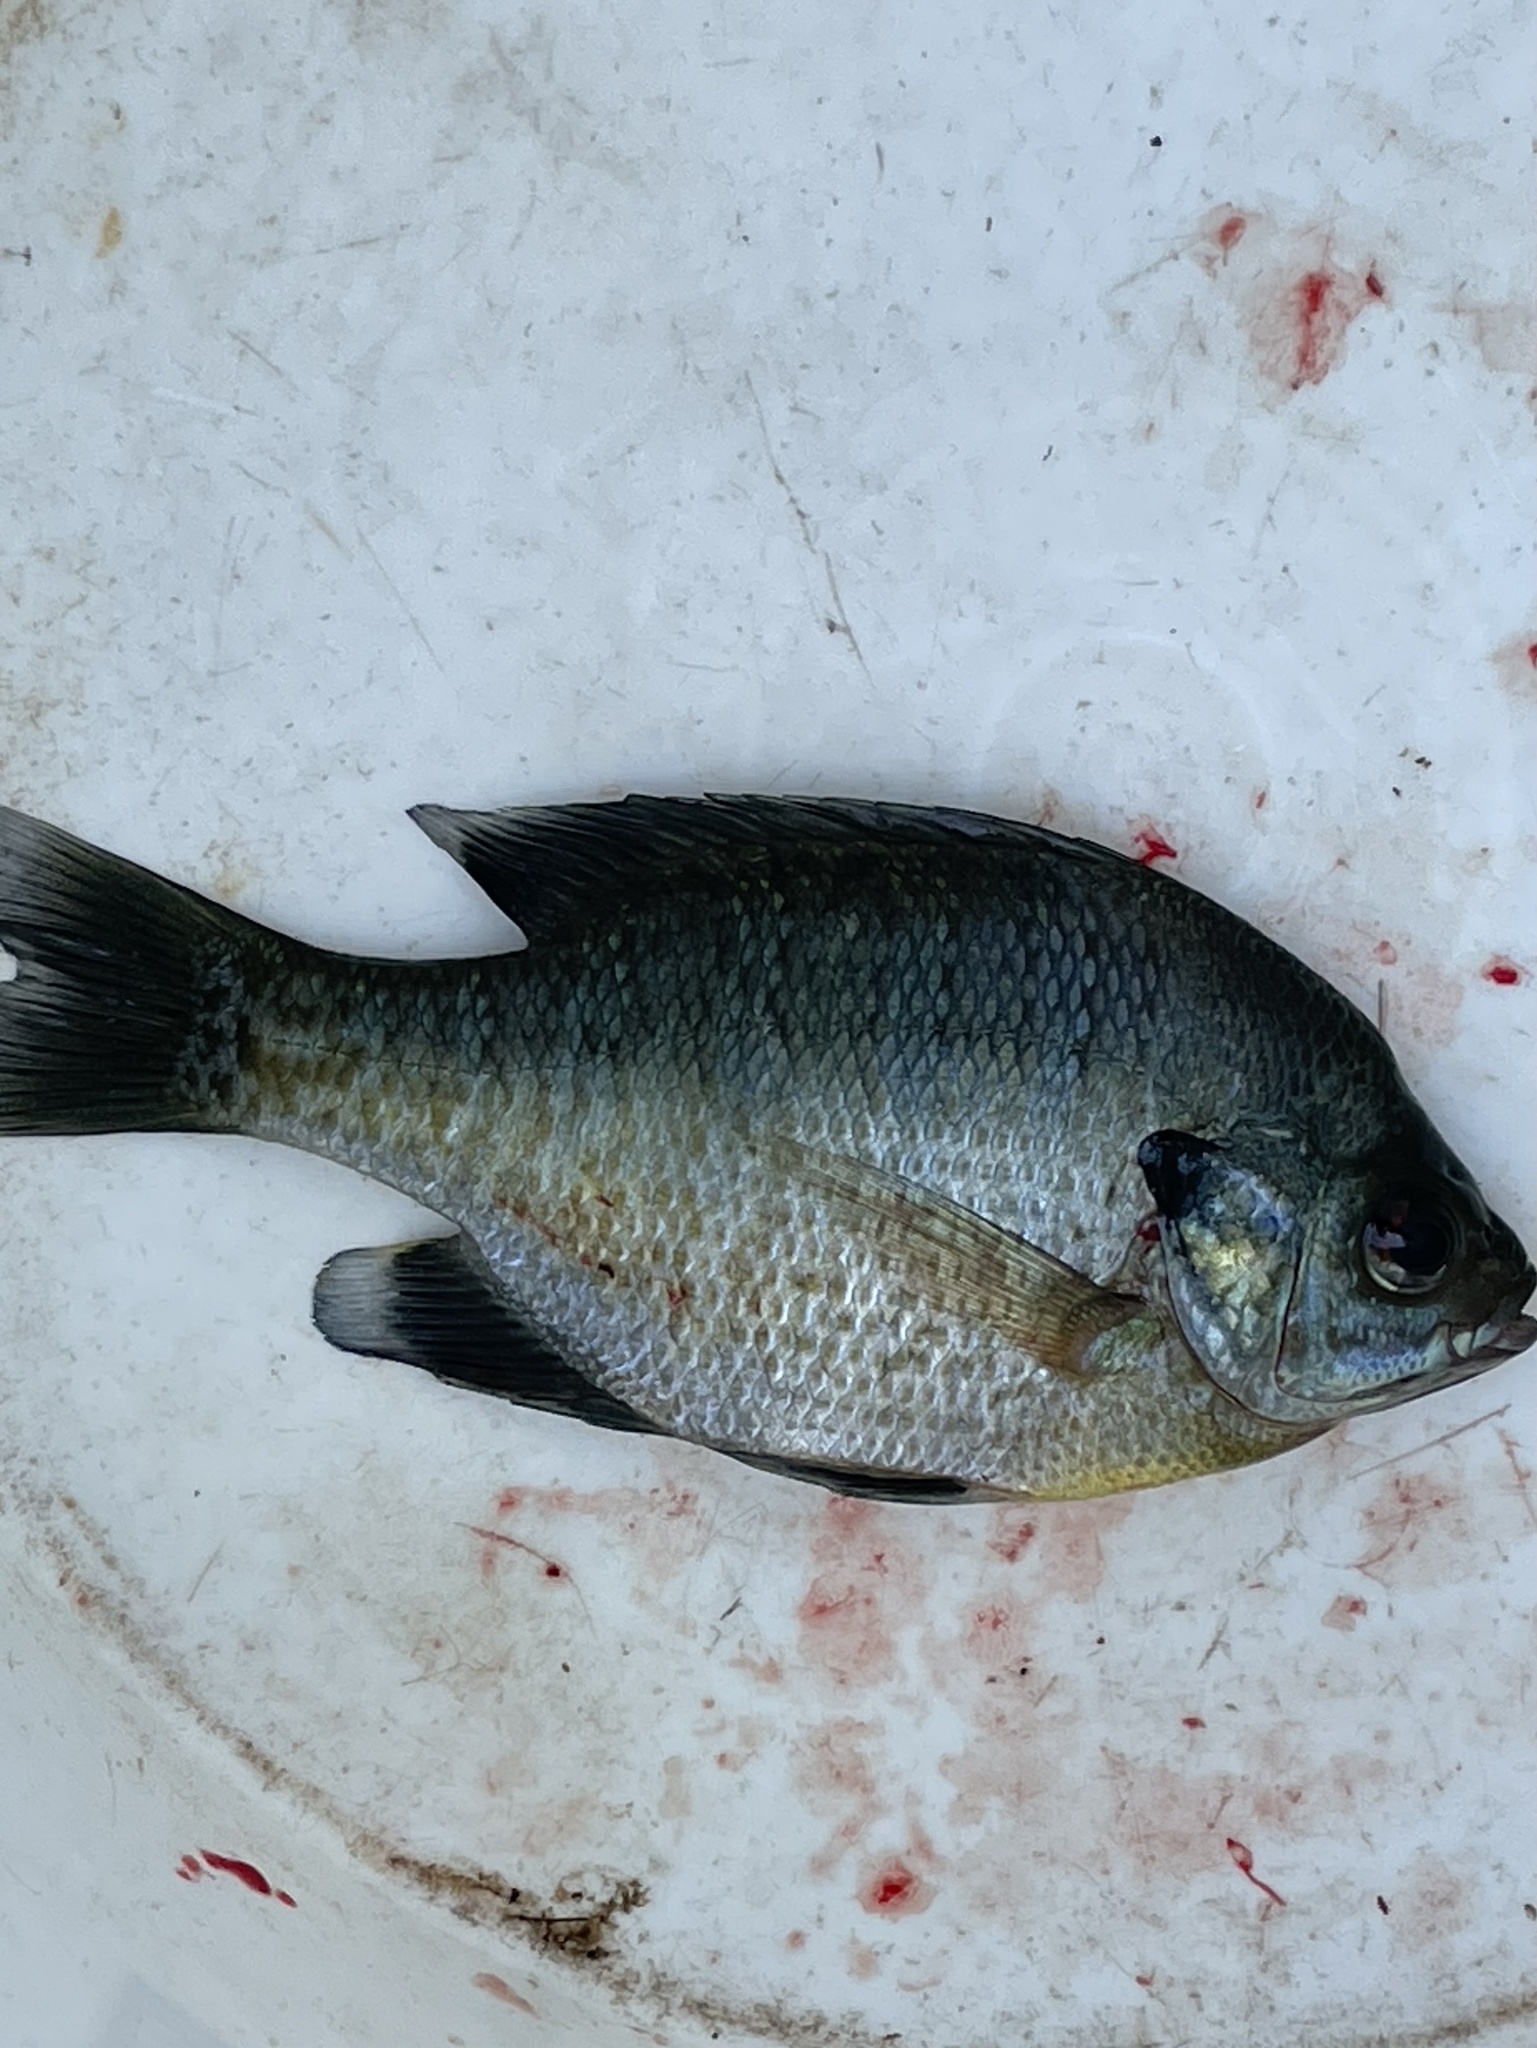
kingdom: Animalia
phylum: Chordata
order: Perciformes
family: Centrarchidae
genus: Lepomis
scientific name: Lepomis macrochirus
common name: Bluegill
